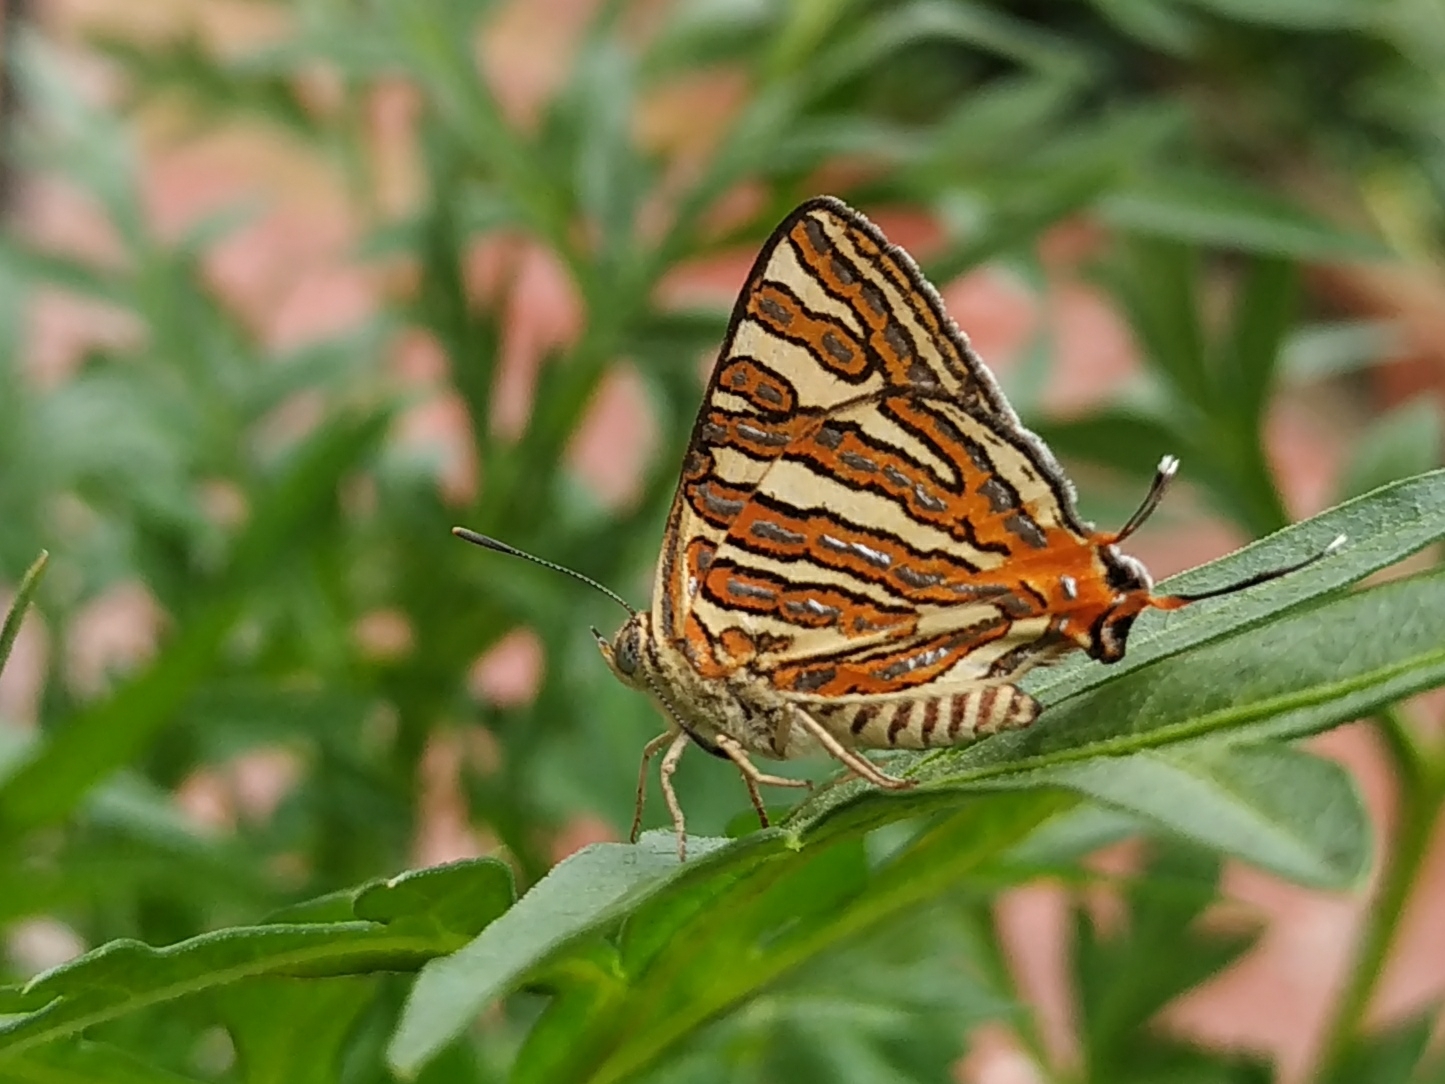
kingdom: Animalia
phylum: Arthropoda
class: Insecta
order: Lepidoptera
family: Lycaenidae
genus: Cigaritis
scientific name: Cigaritis vulcanus
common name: Common silverline
